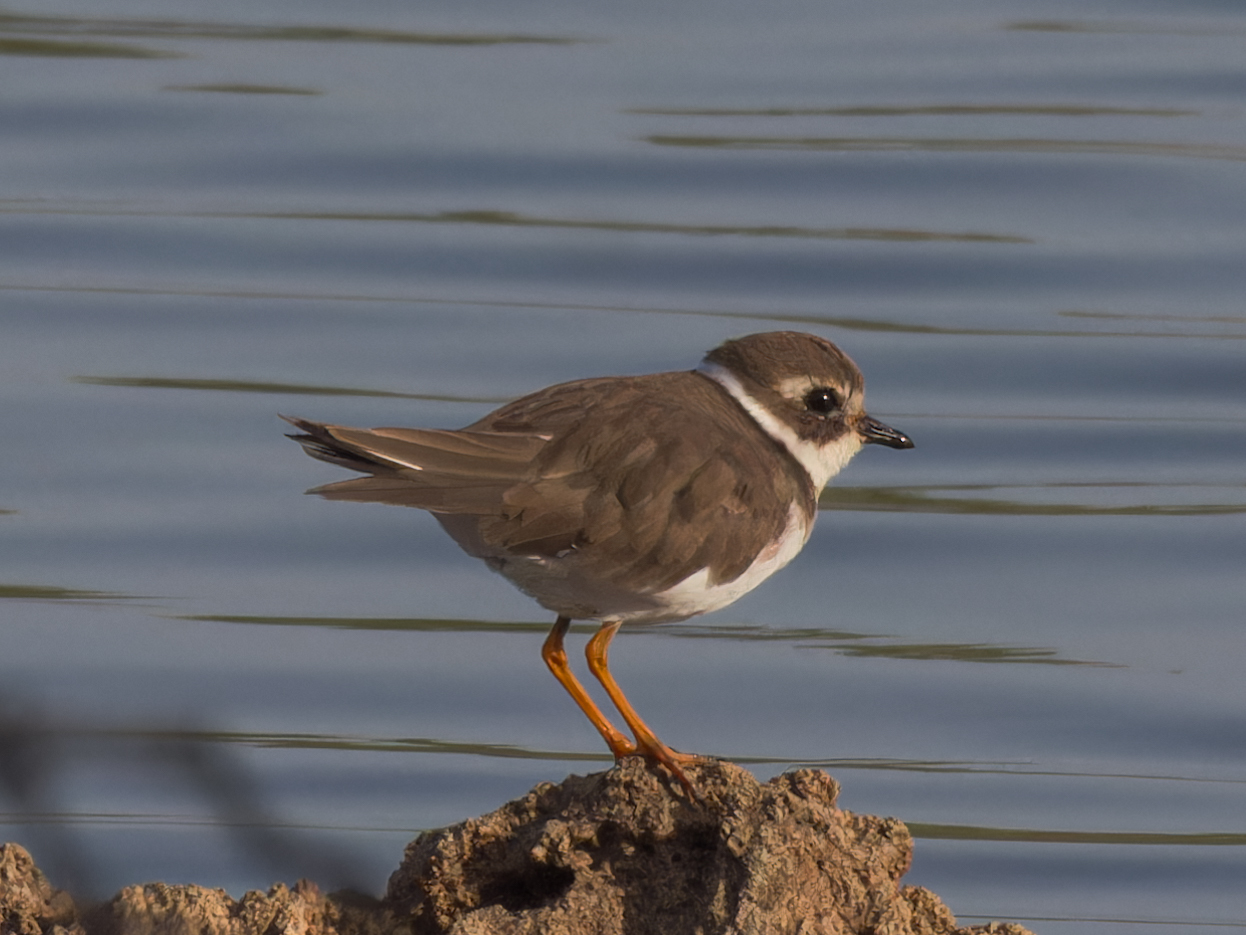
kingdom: Animalia
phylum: Chordata
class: Aves
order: Charadriiformes
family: Charadriidae
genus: Charadrius
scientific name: Charadrius hiaticula
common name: Common ringed plover
